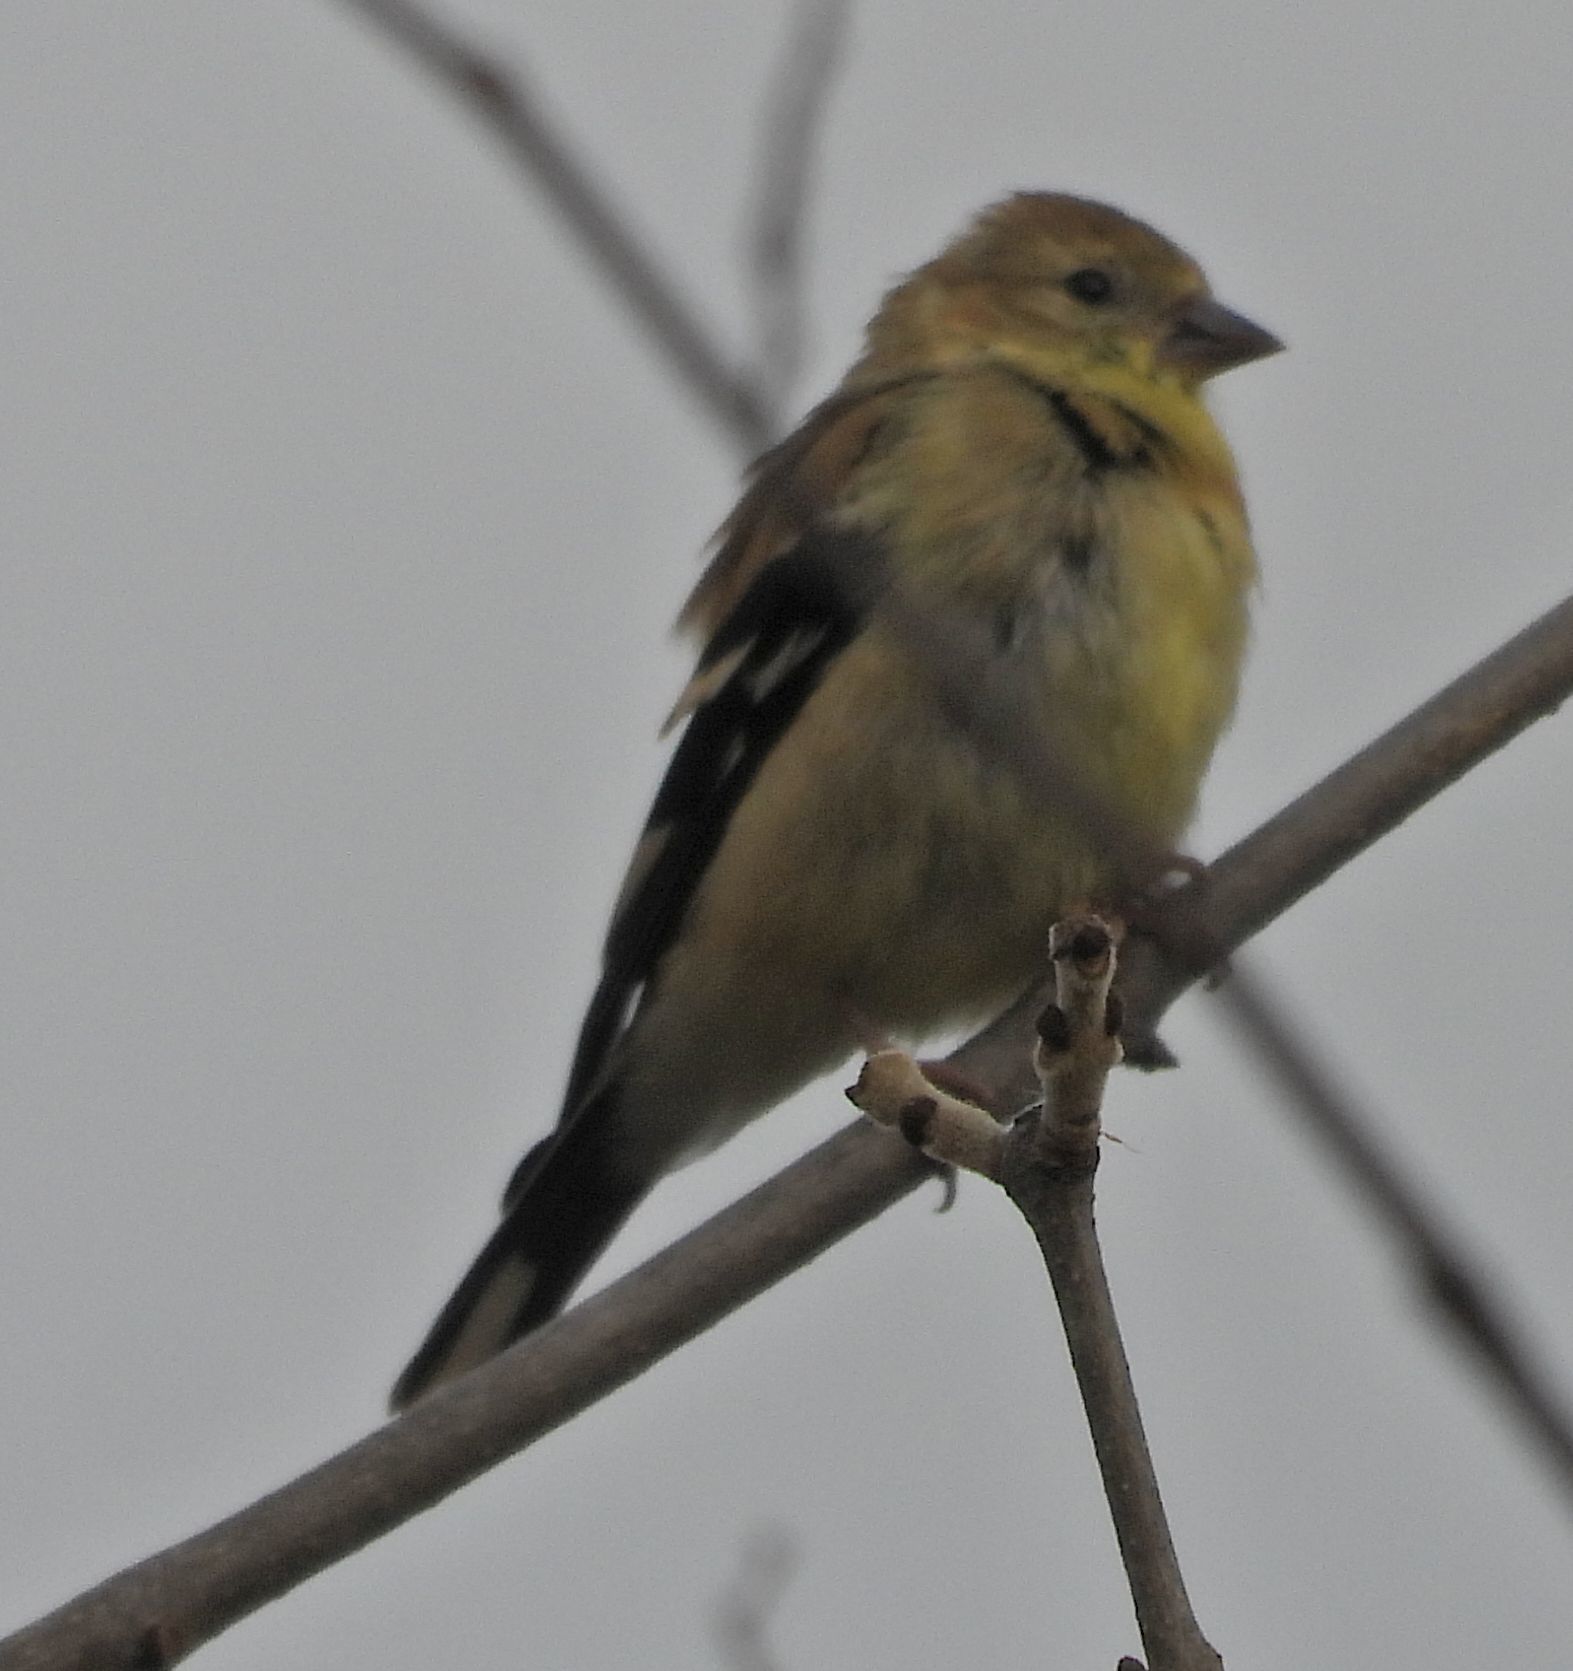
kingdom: Animalia
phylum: Chordata
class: Aves
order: Passeriformes
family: Fringillidae
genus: Spinus
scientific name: Spinus tristis
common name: American goldfinch
